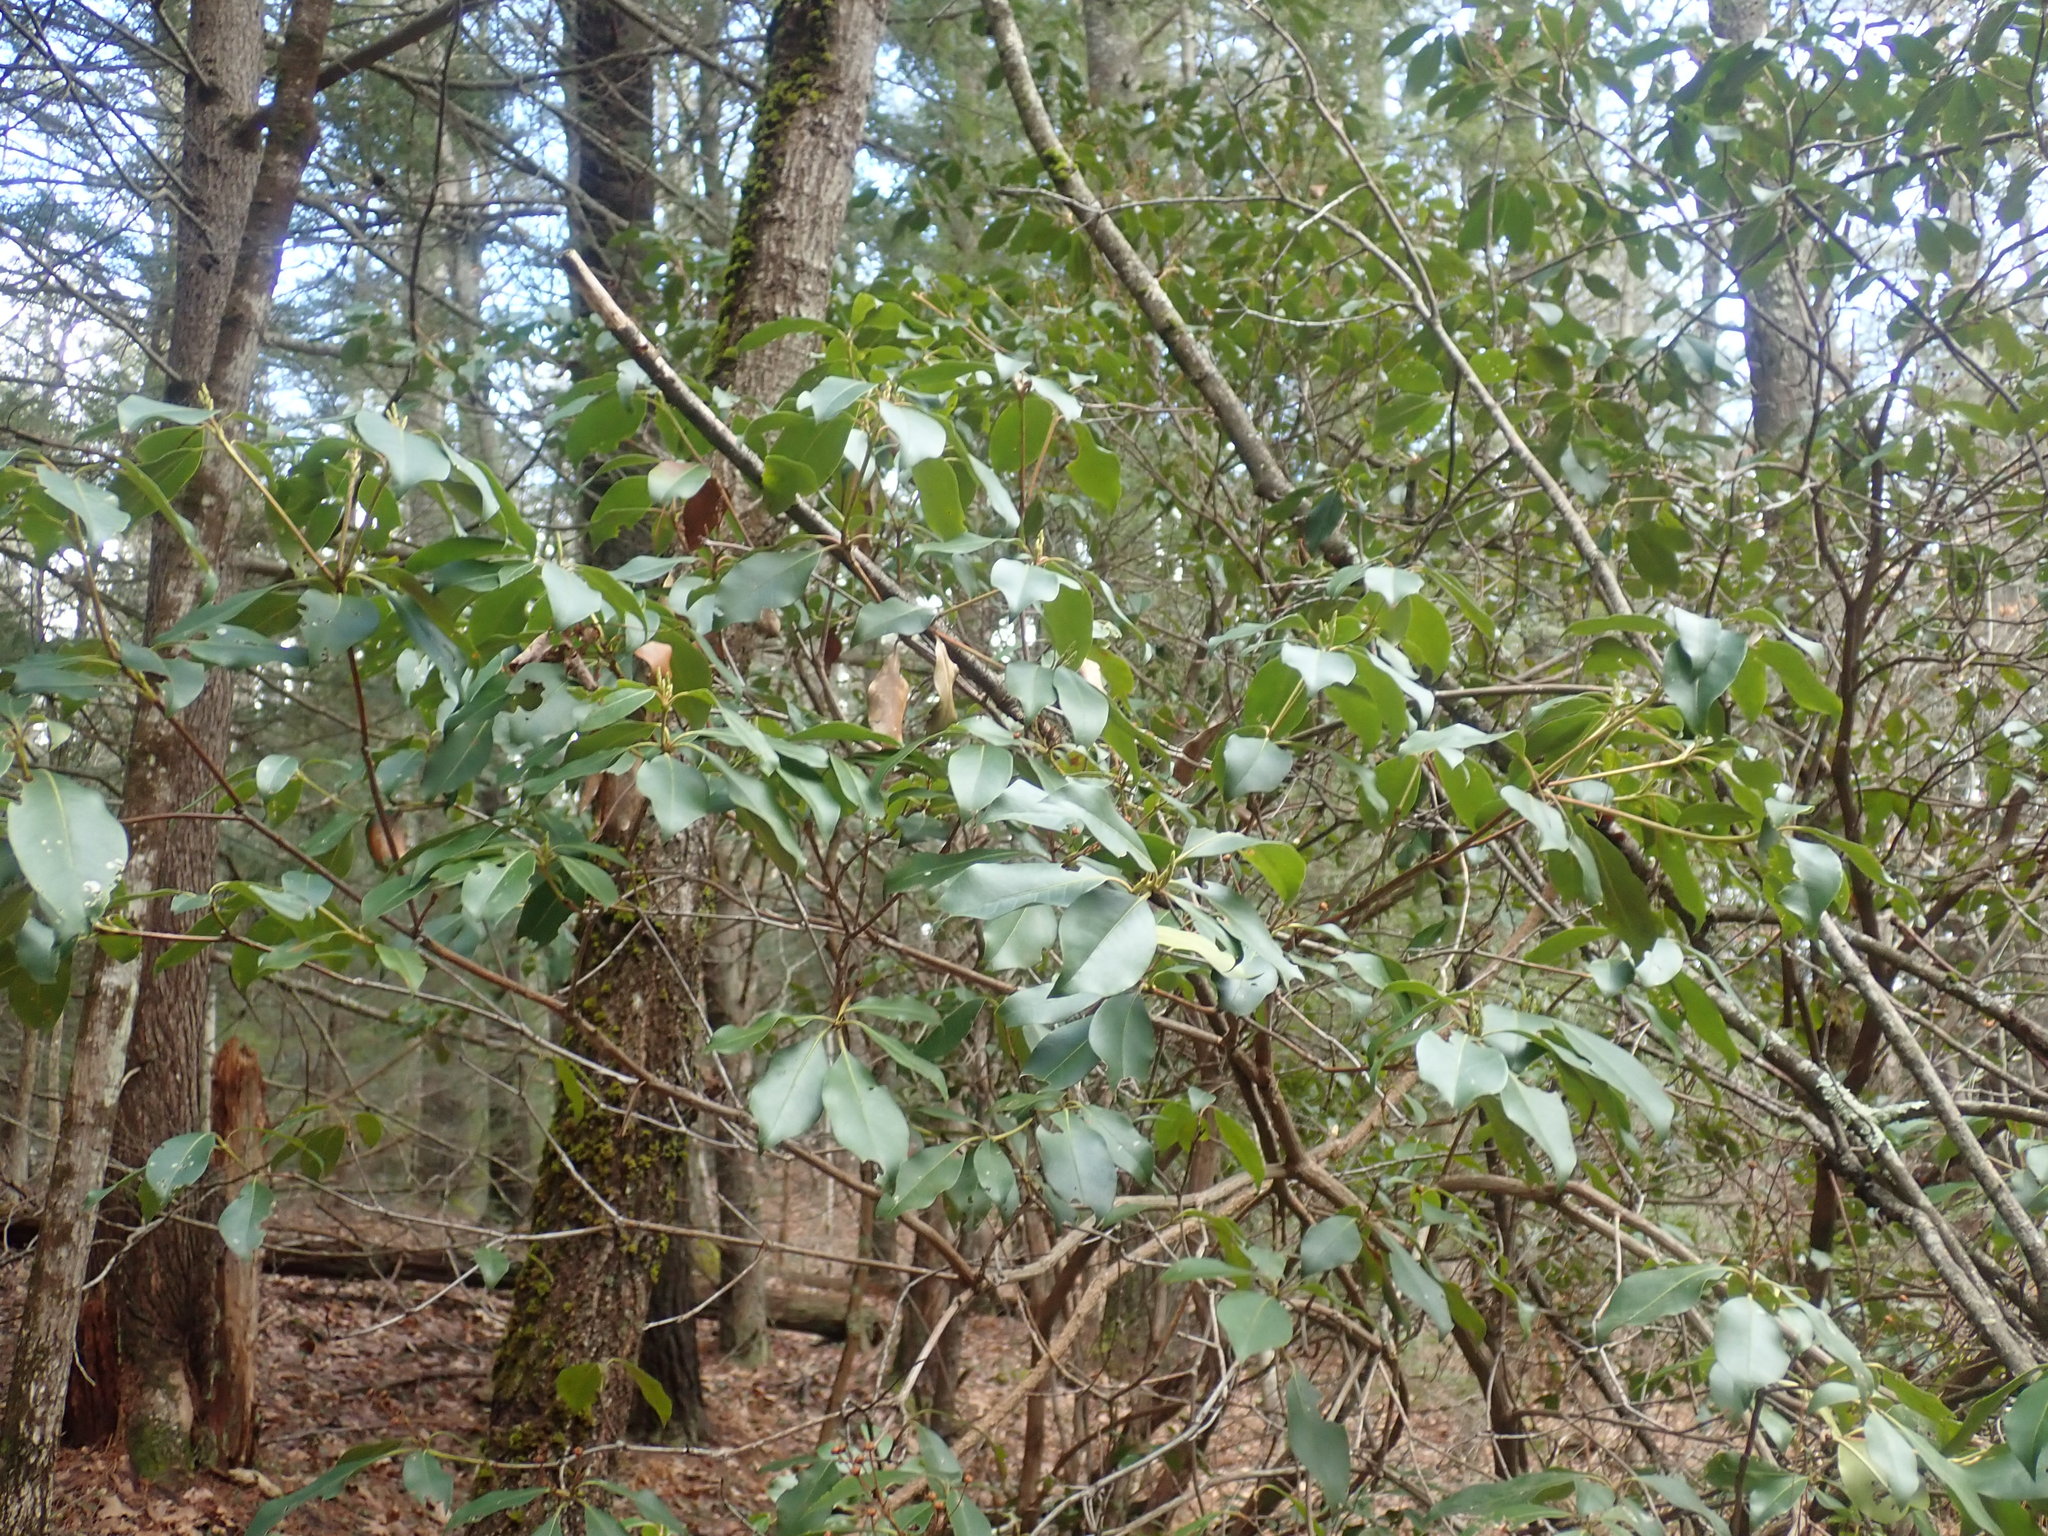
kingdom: Plantae
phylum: Tracheophyta
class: Magnoliopsida
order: Ericales
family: Ericaceae
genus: Kalmia
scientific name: Kalmia latifolia
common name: Mountain-laurel
